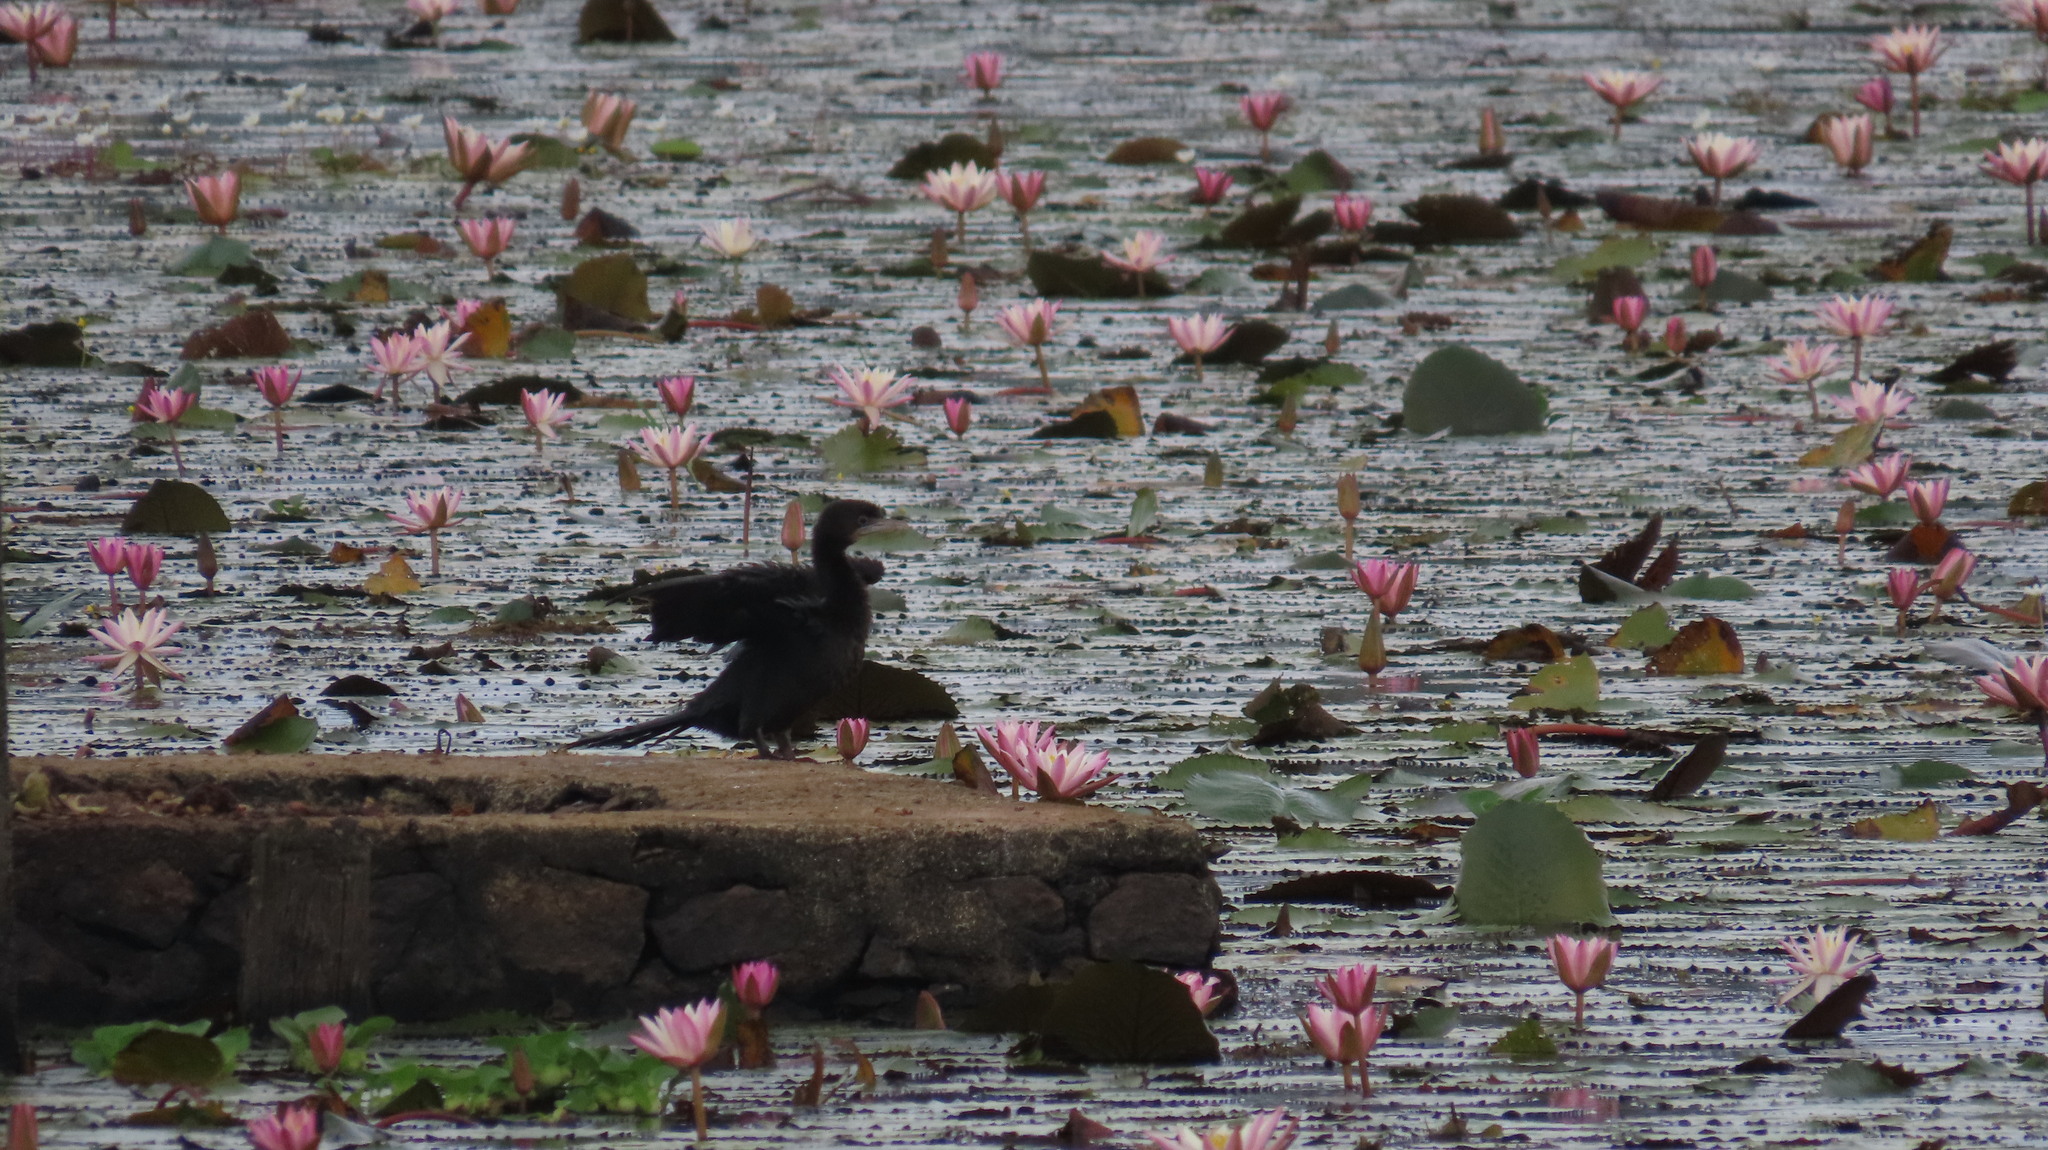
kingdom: Animalia
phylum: Chordata
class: Aves
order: Suliformes
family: Phalacrocoracidae
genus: Microcarbo
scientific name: Microcarbo niger
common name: Little cormorant
